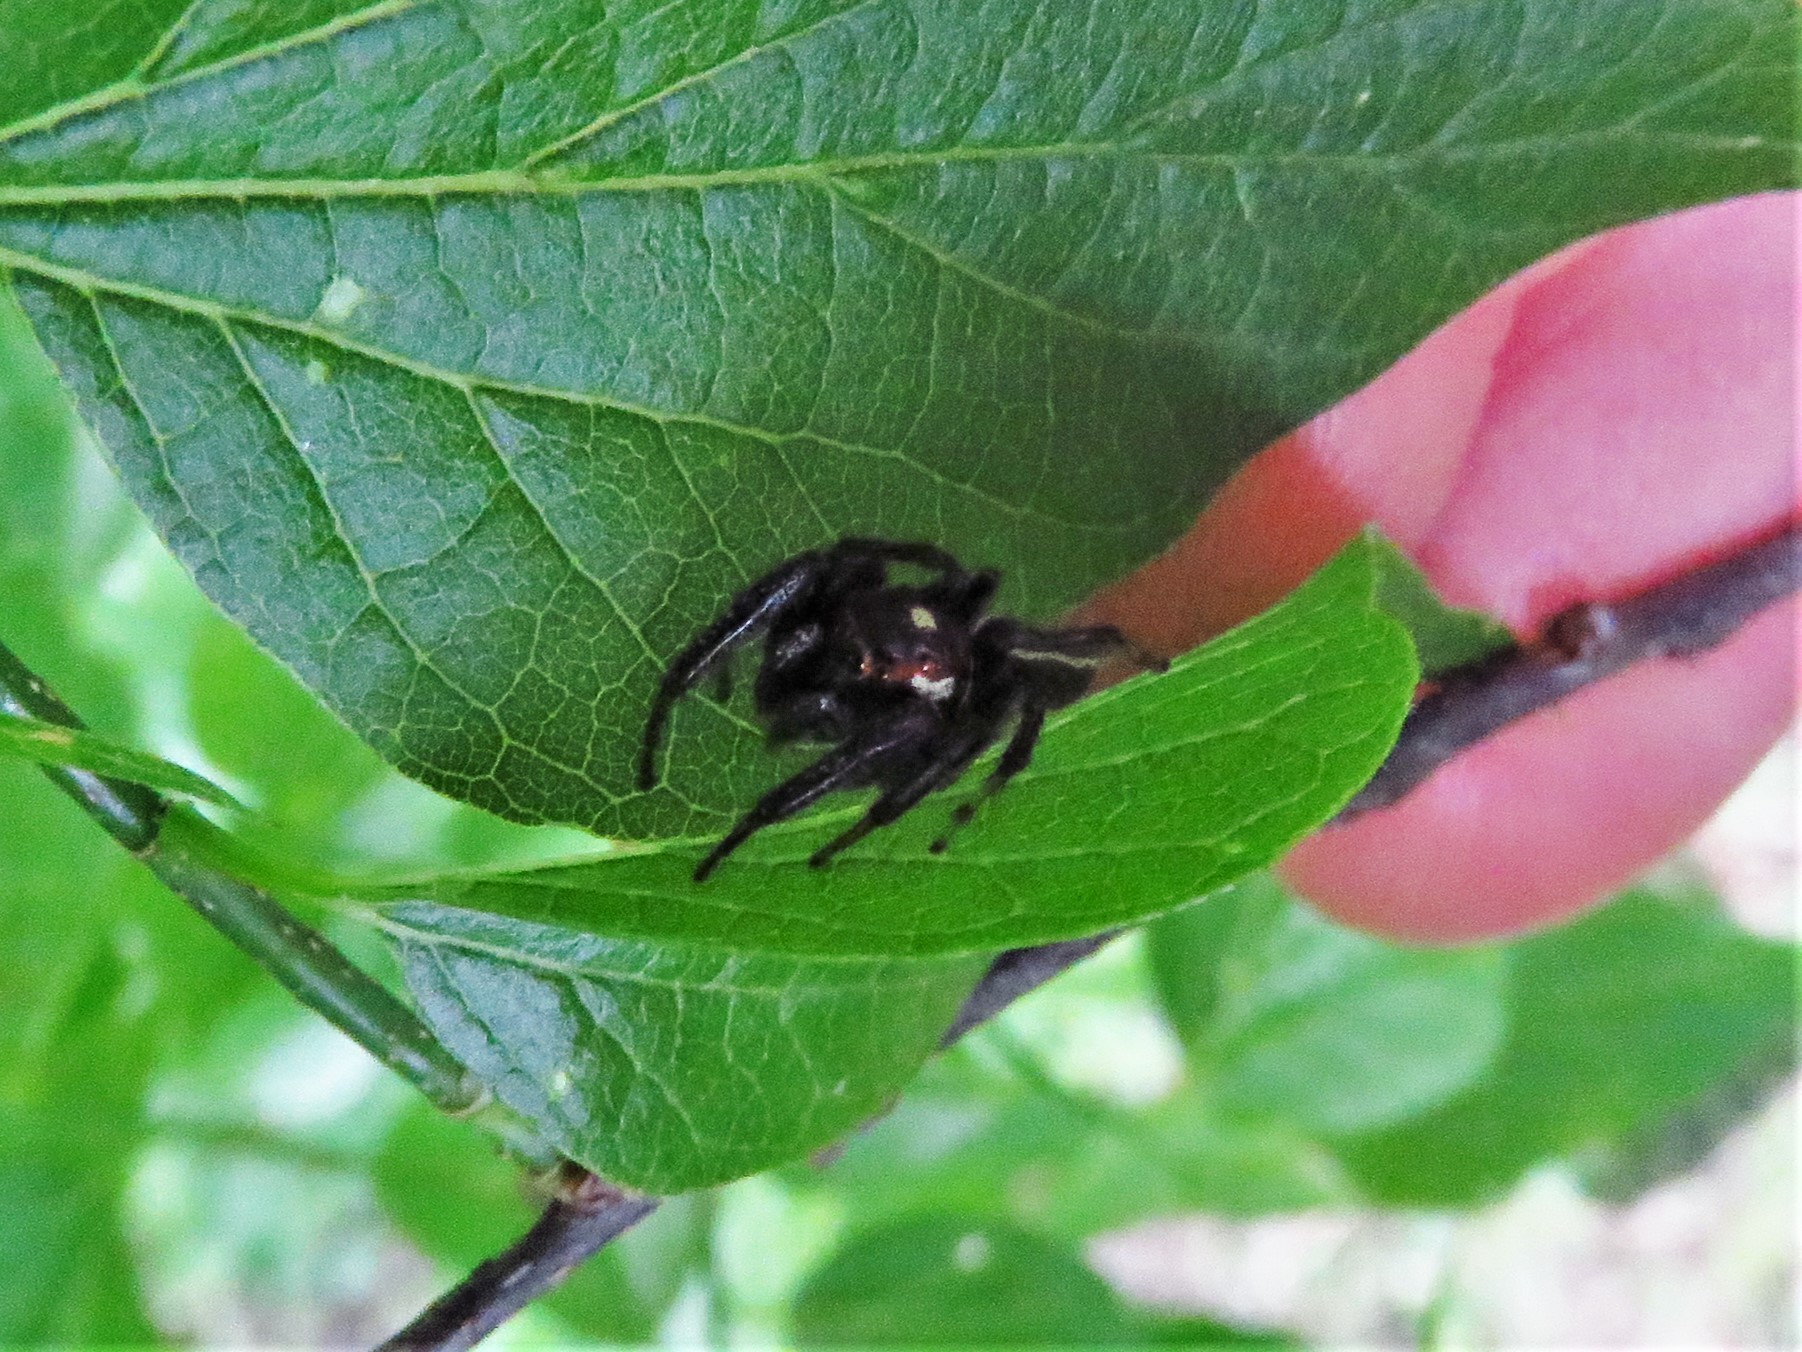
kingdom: Animalia
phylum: Arthropoda
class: Arachnida
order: Araneae
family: Salticidae
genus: Colonus
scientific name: Colonus sylvanus
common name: Jumping spiders
